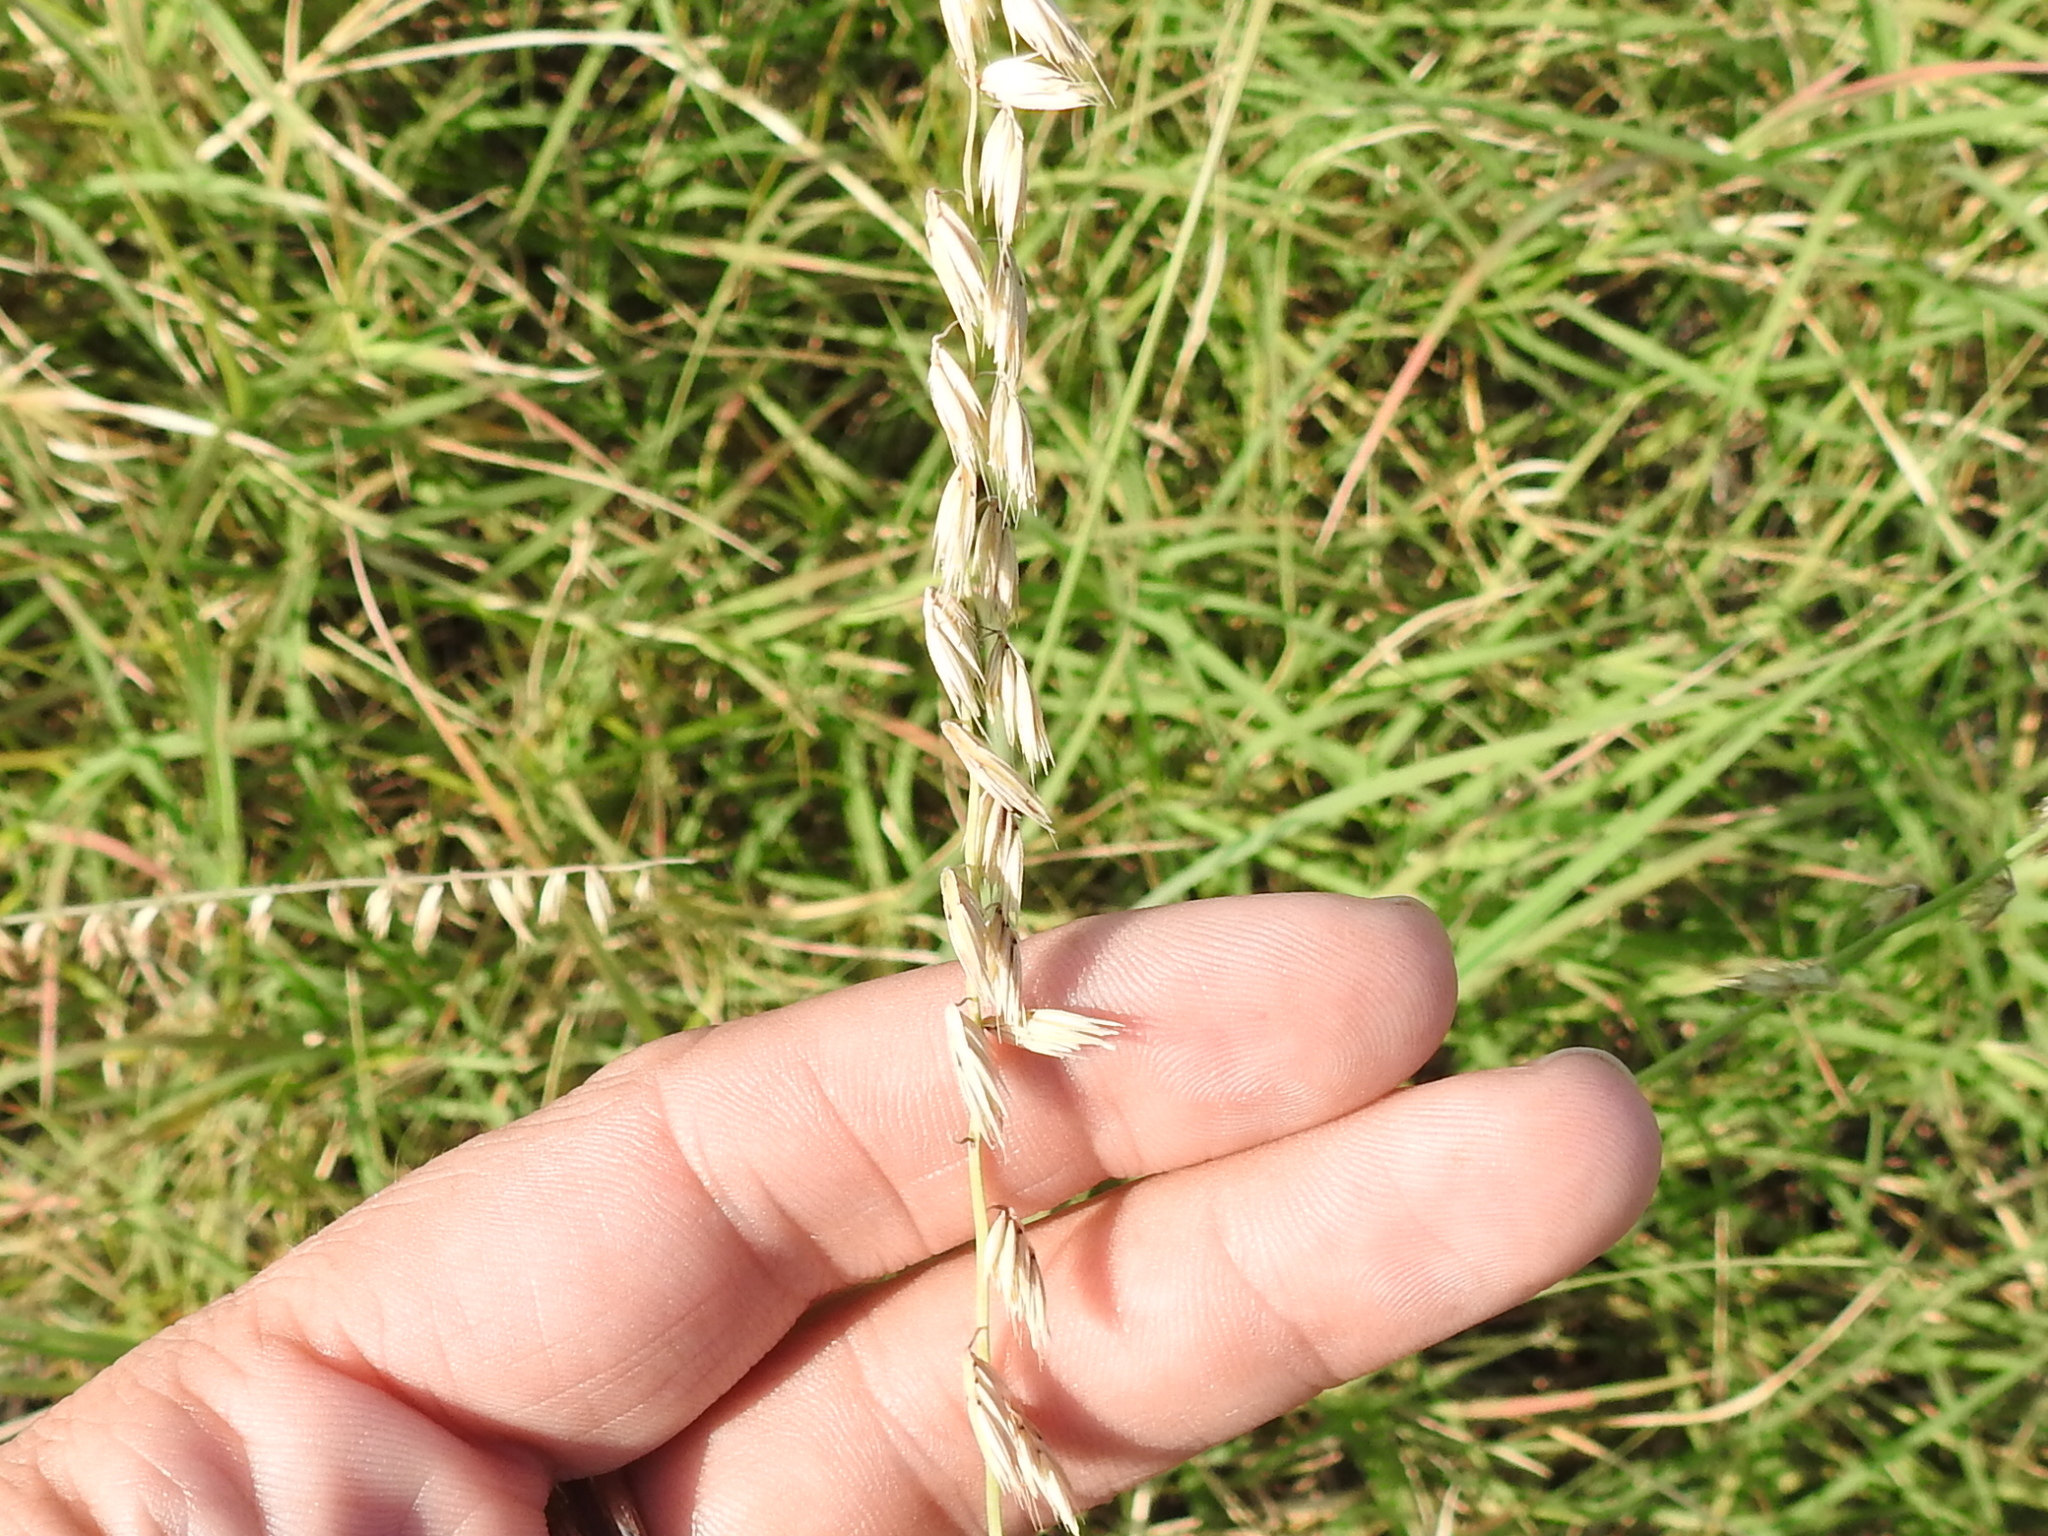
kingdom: Plantae
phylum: Tracheophyta
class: Liliopsida
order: Poales
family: Poaceae
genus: Bouteloua
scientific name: Bouteloua curtipendula
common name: Side-oats grama
